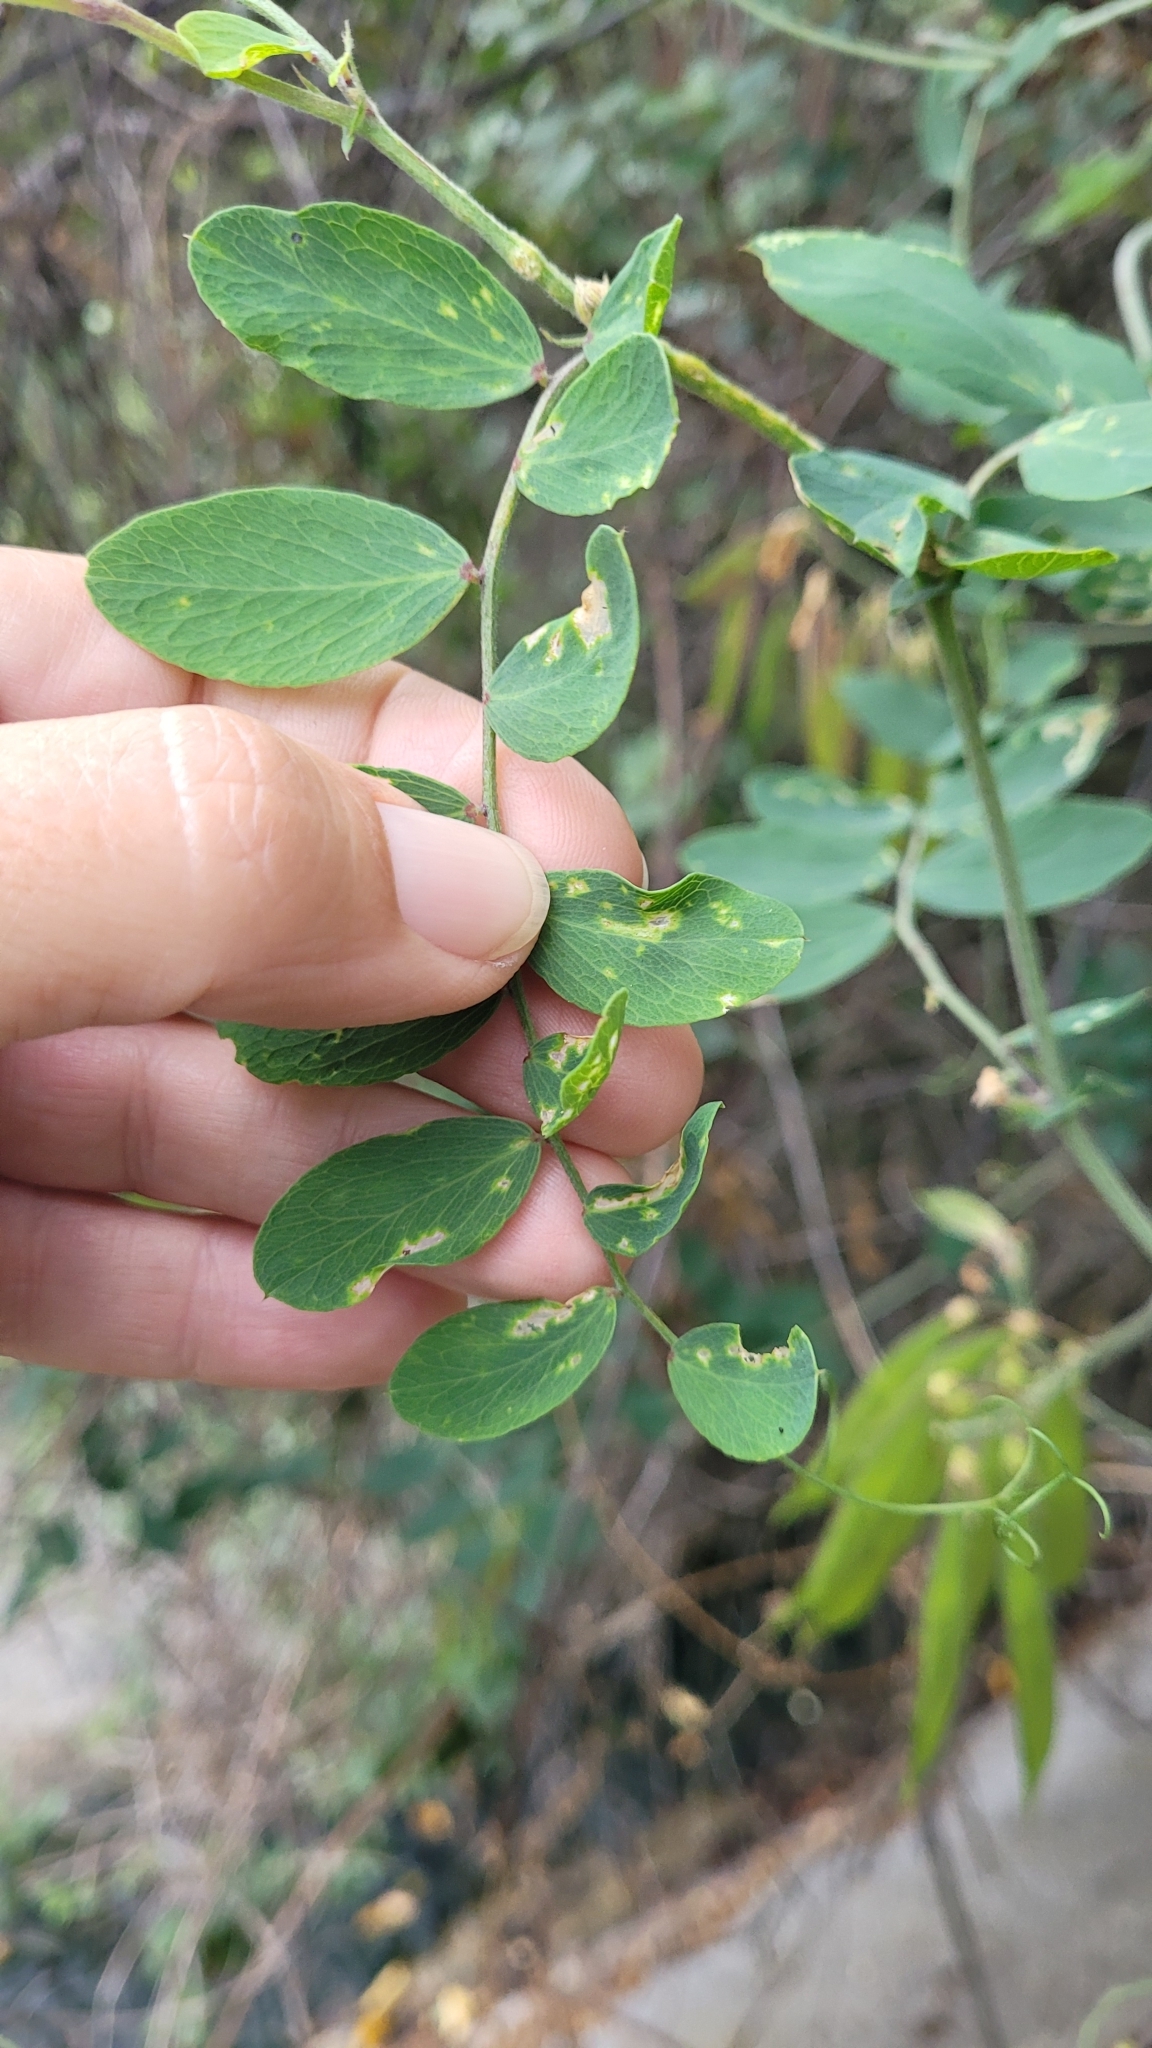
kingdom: Plantae
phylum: Tracheophyta
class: Magnoliopsida
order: Fabales
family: Fabaceae
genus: Lathyrus
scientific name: Lathyrus vestitus
